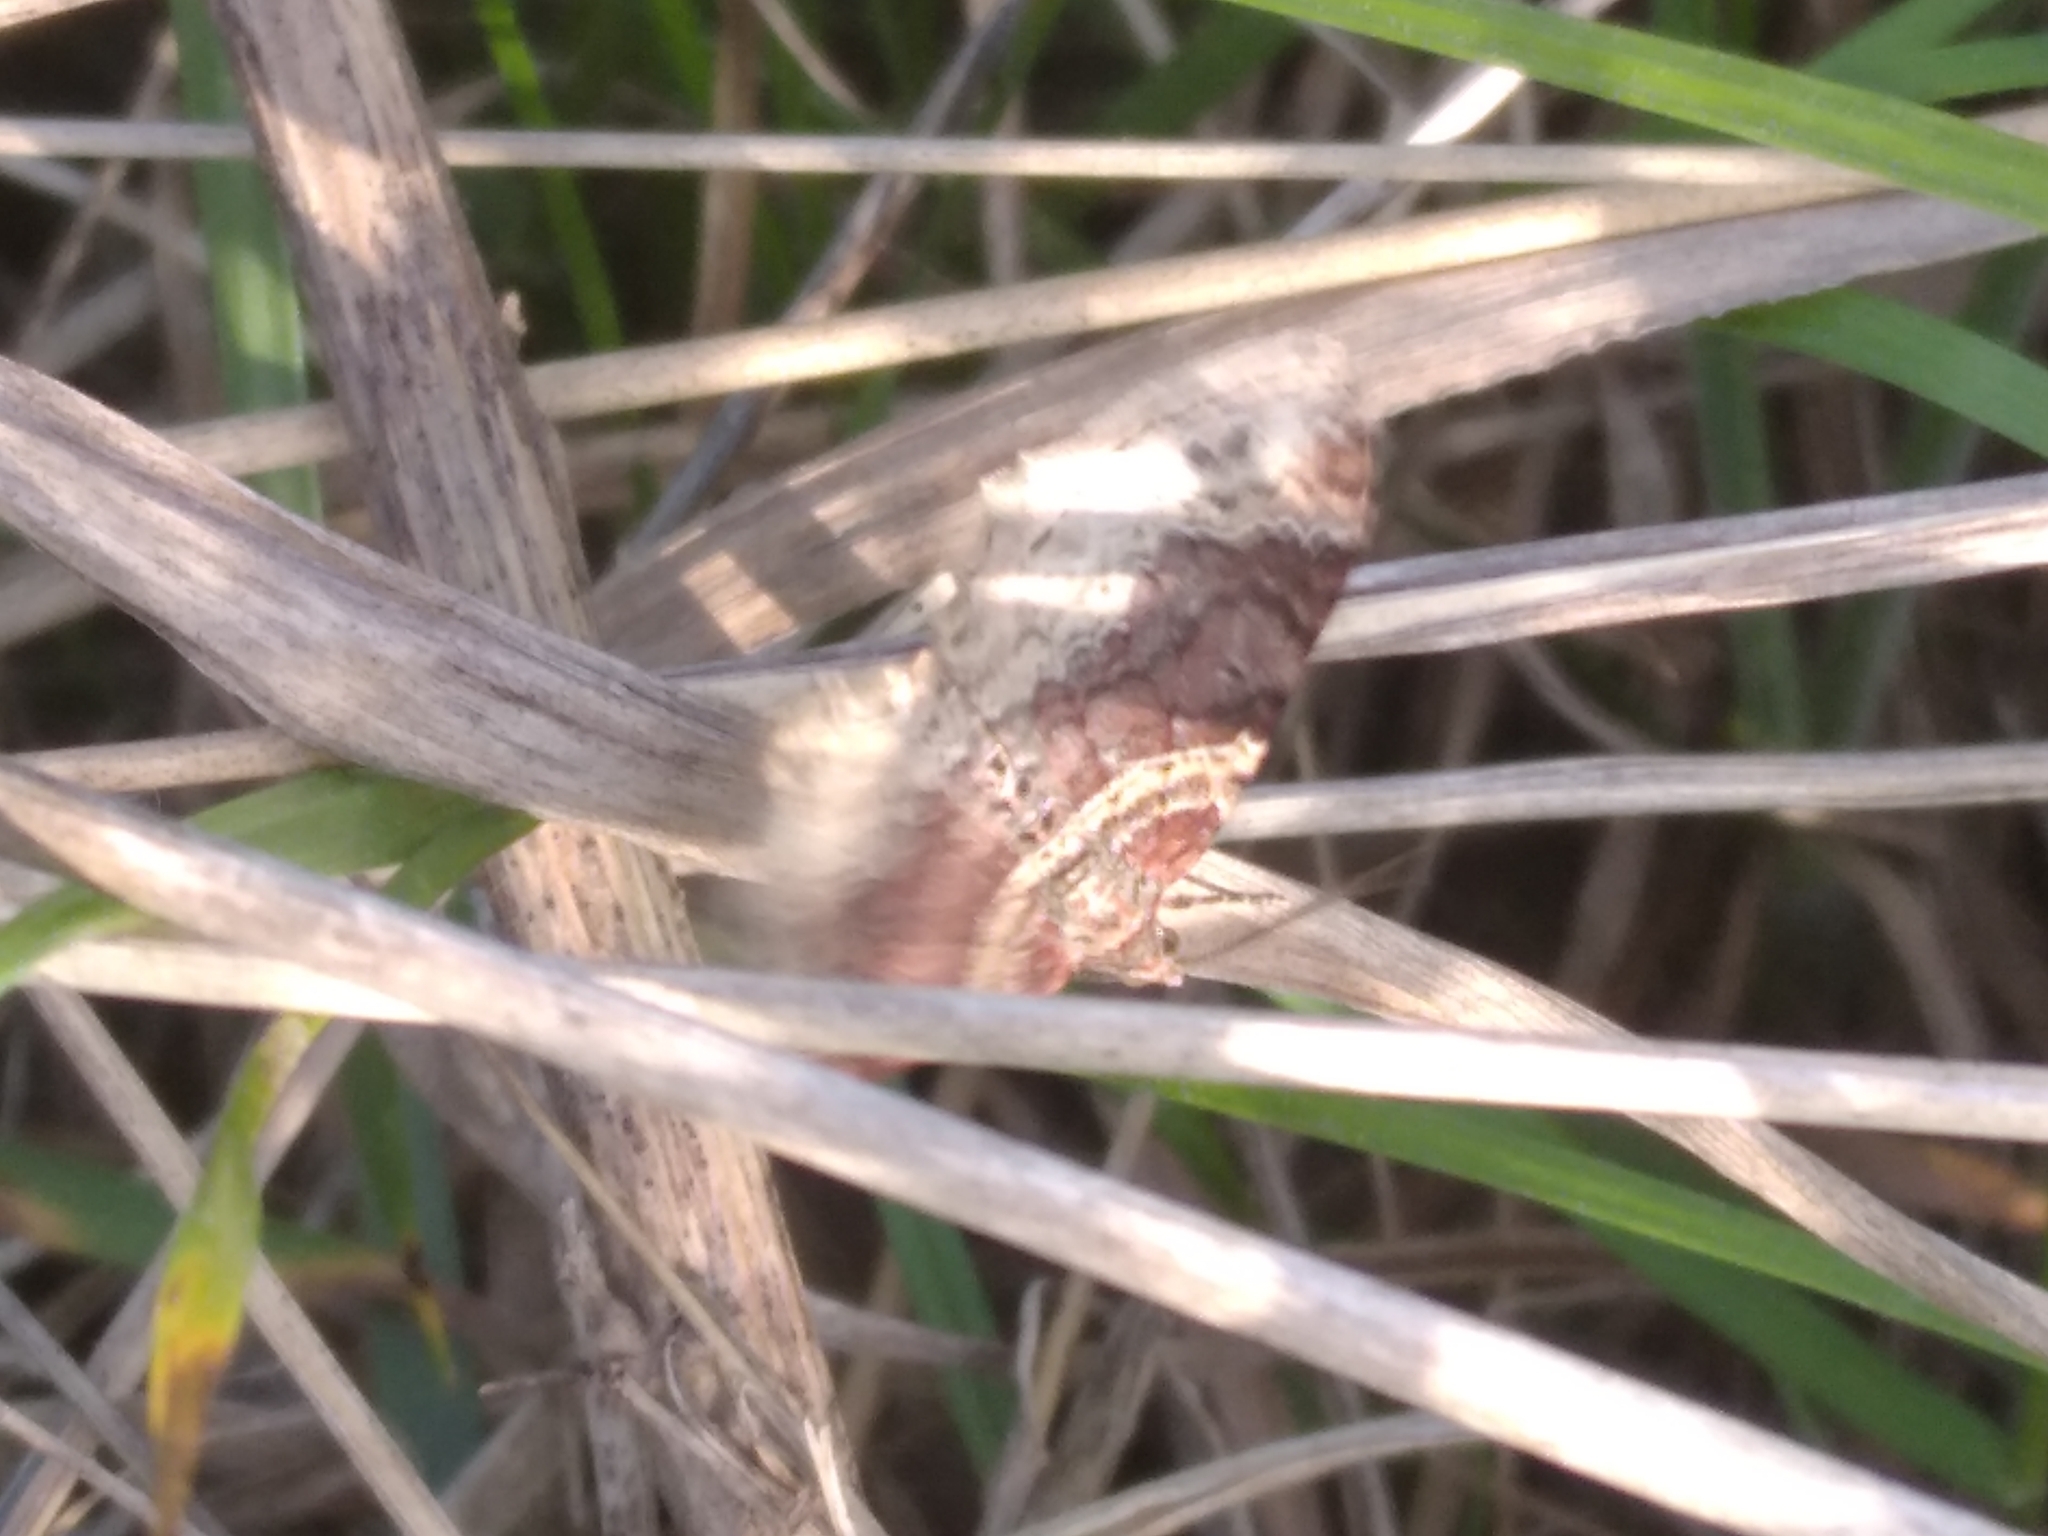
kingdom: Animalia
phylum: Arthropoda
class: Insecta
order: Lepidoptera
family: Geometridae
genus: Xanthorhoe
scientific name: Xanthorhoe spadicearia
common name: Red twin-spot carpet
